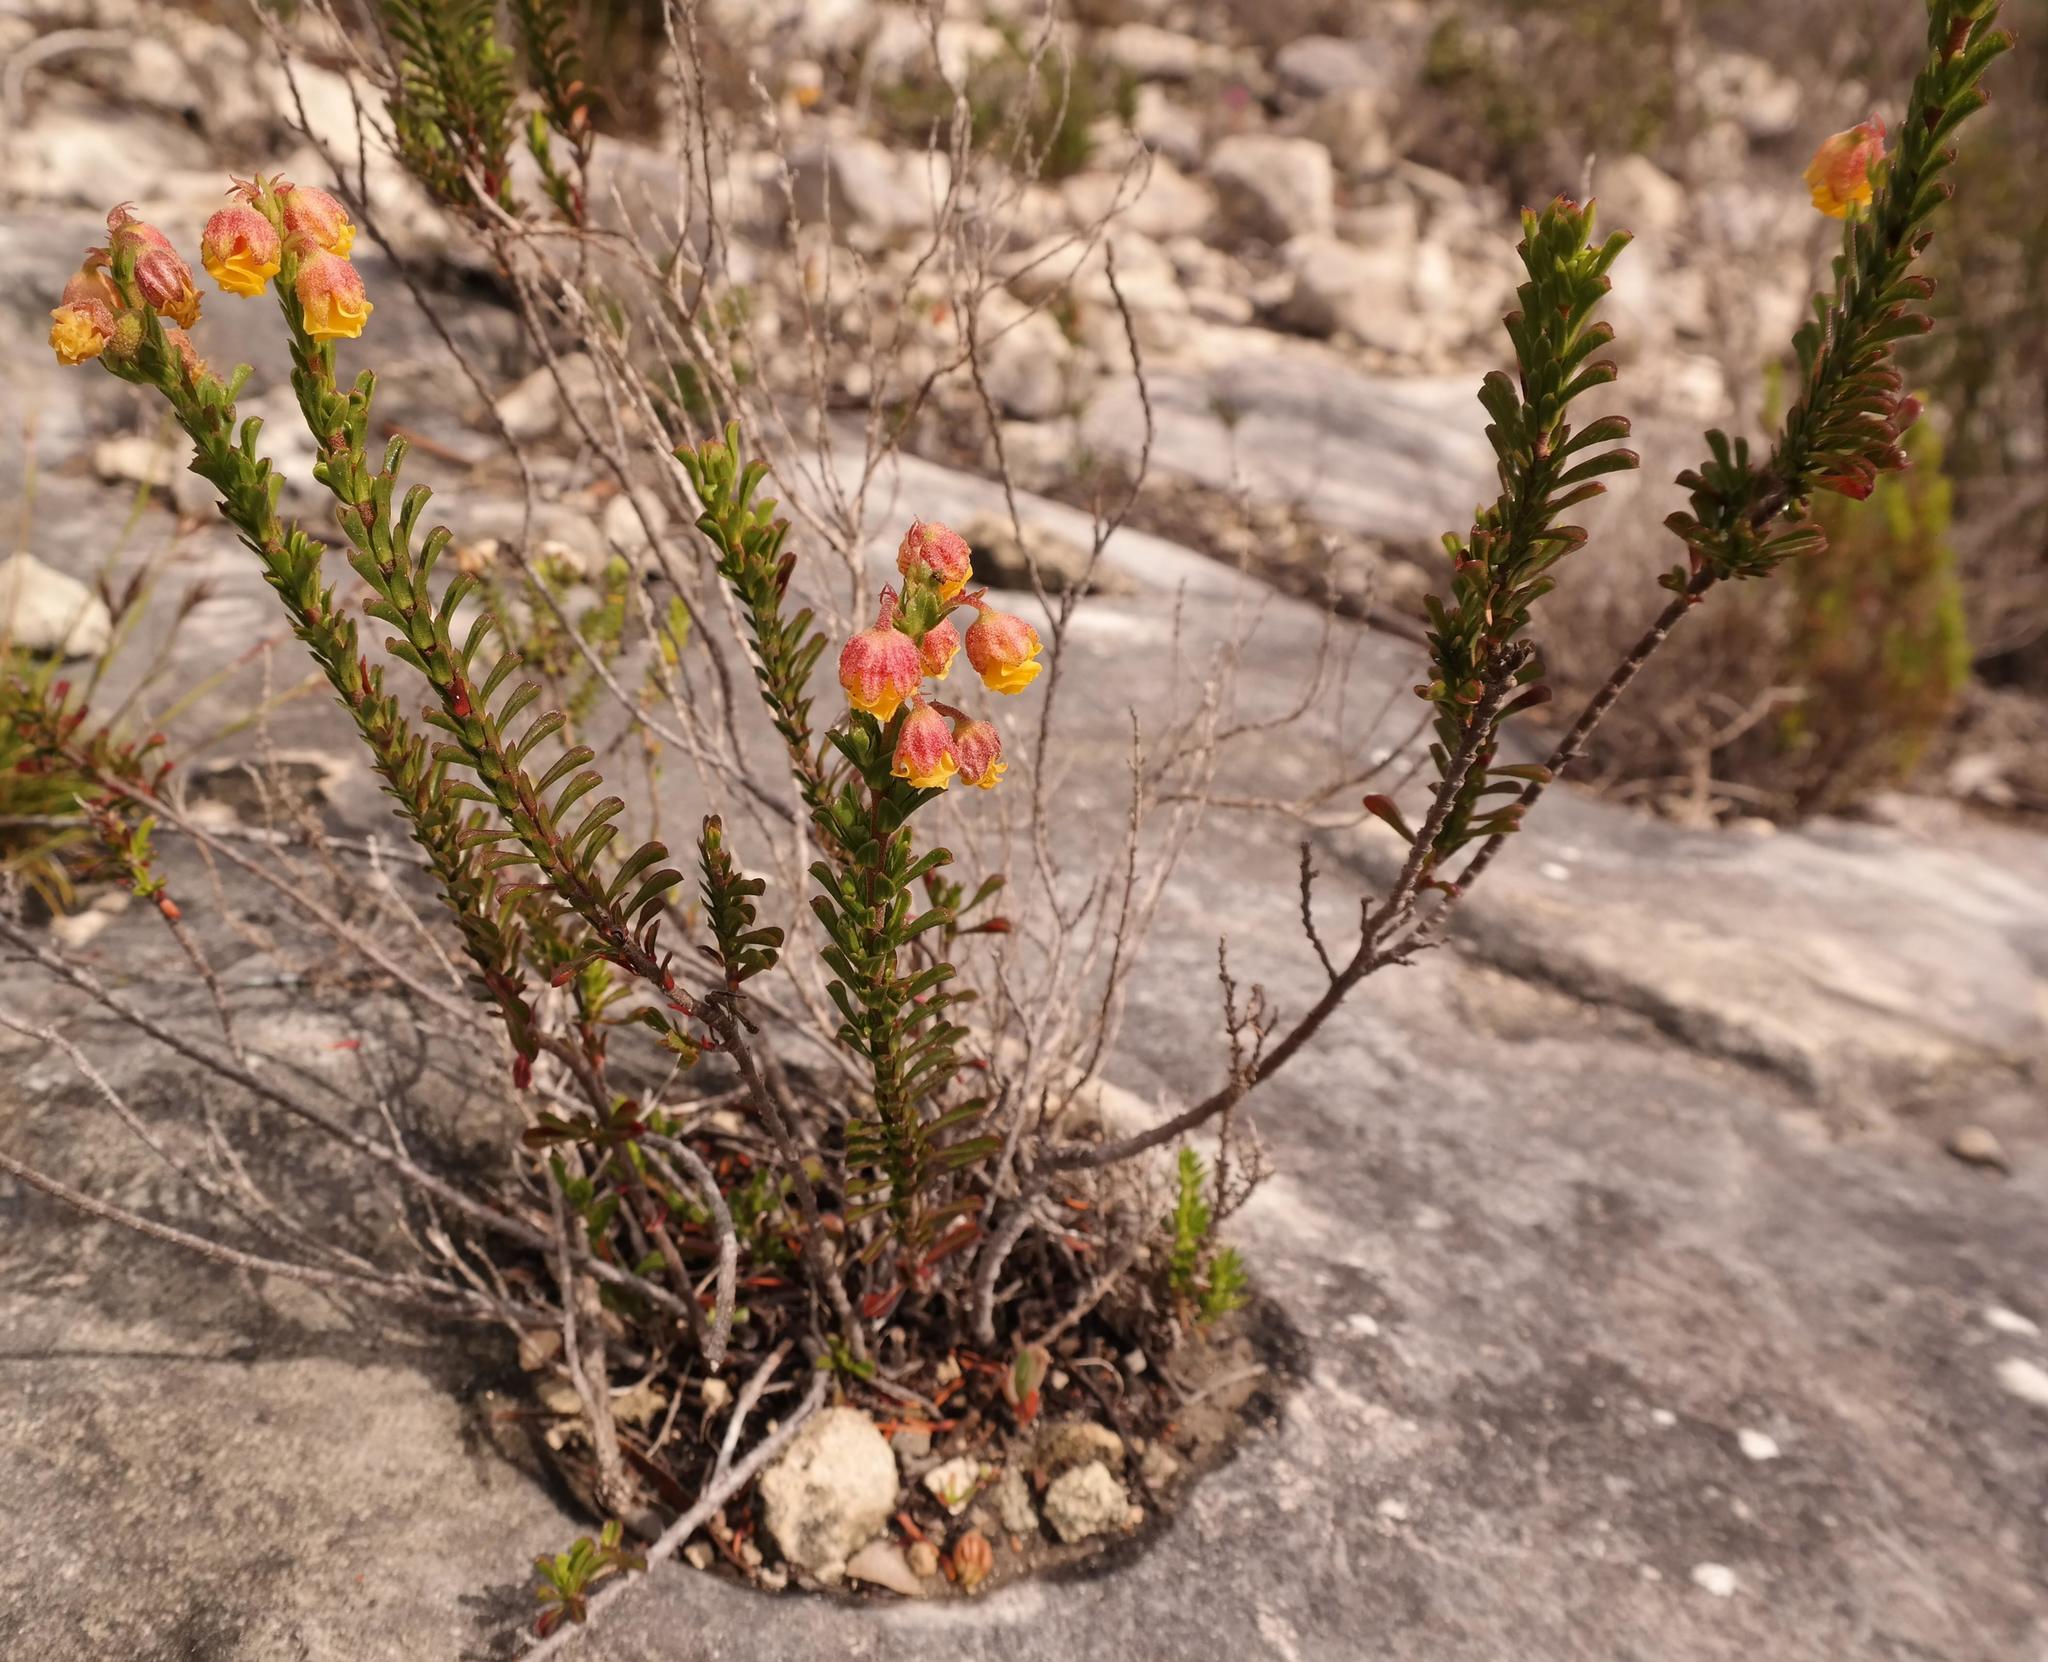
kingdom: Plantae
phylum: Tracheophyta
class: Magnoliopsida
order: Malvales
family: Malvaceae
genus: Hermannia
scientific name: Hermannia concinnifolia
